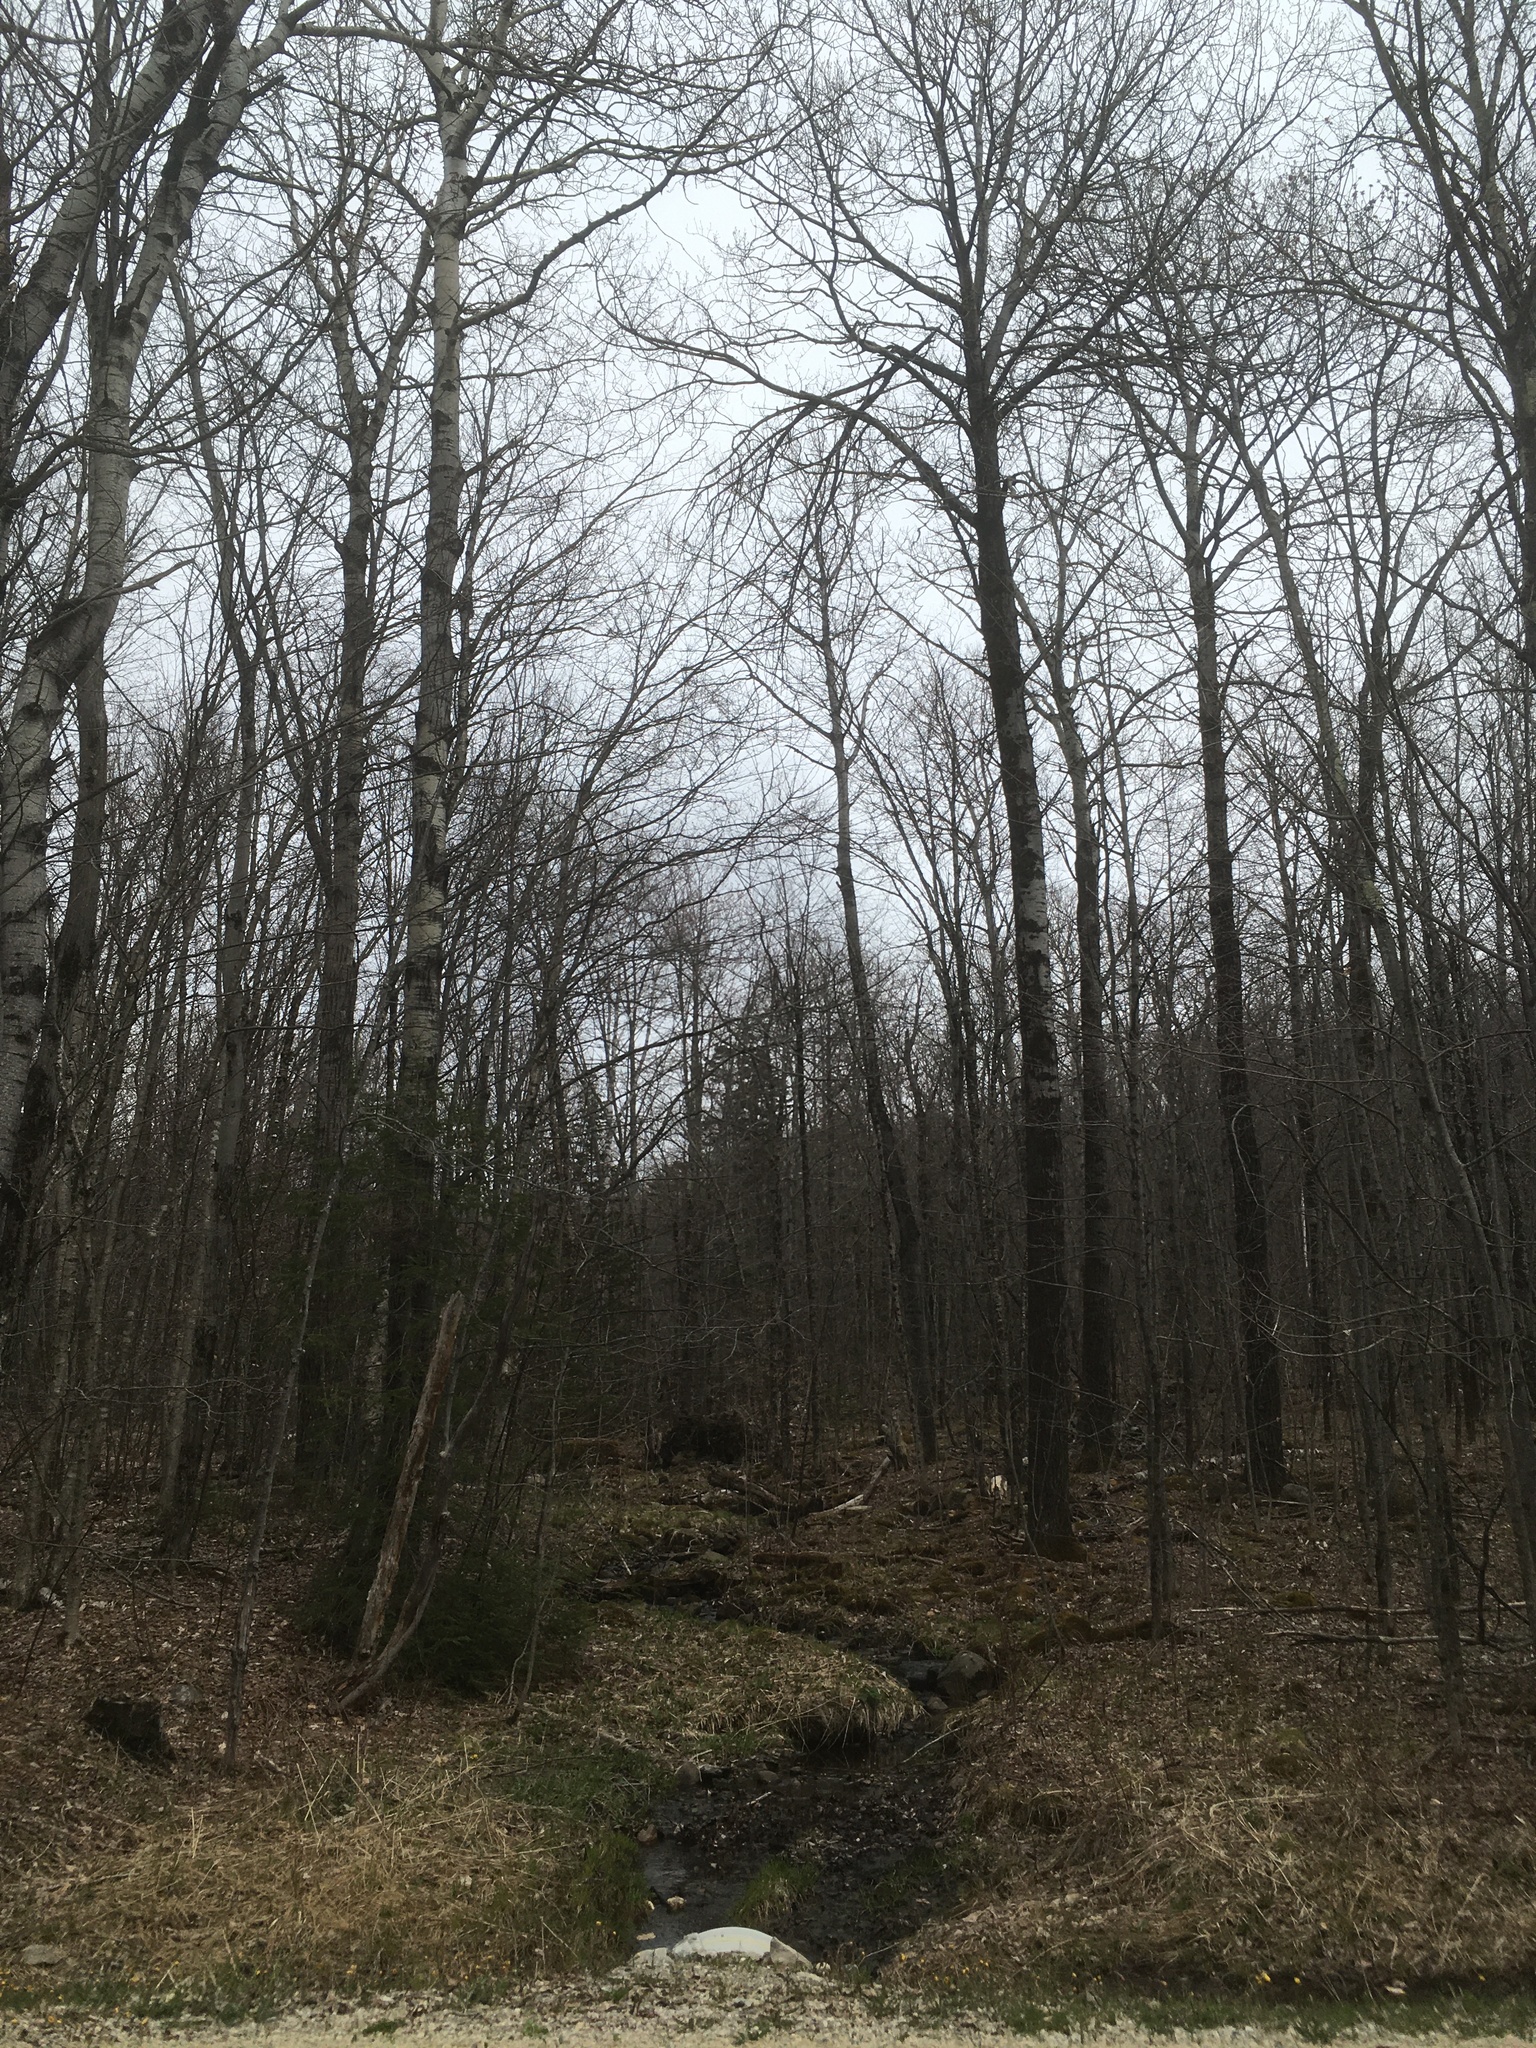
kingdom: Plantae
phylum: Tracheophyta
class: Magnoliopsida
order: Malpighiales
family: Salicaceae
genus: Populus
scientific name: Populus tremuloides
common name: Quaking aspen
